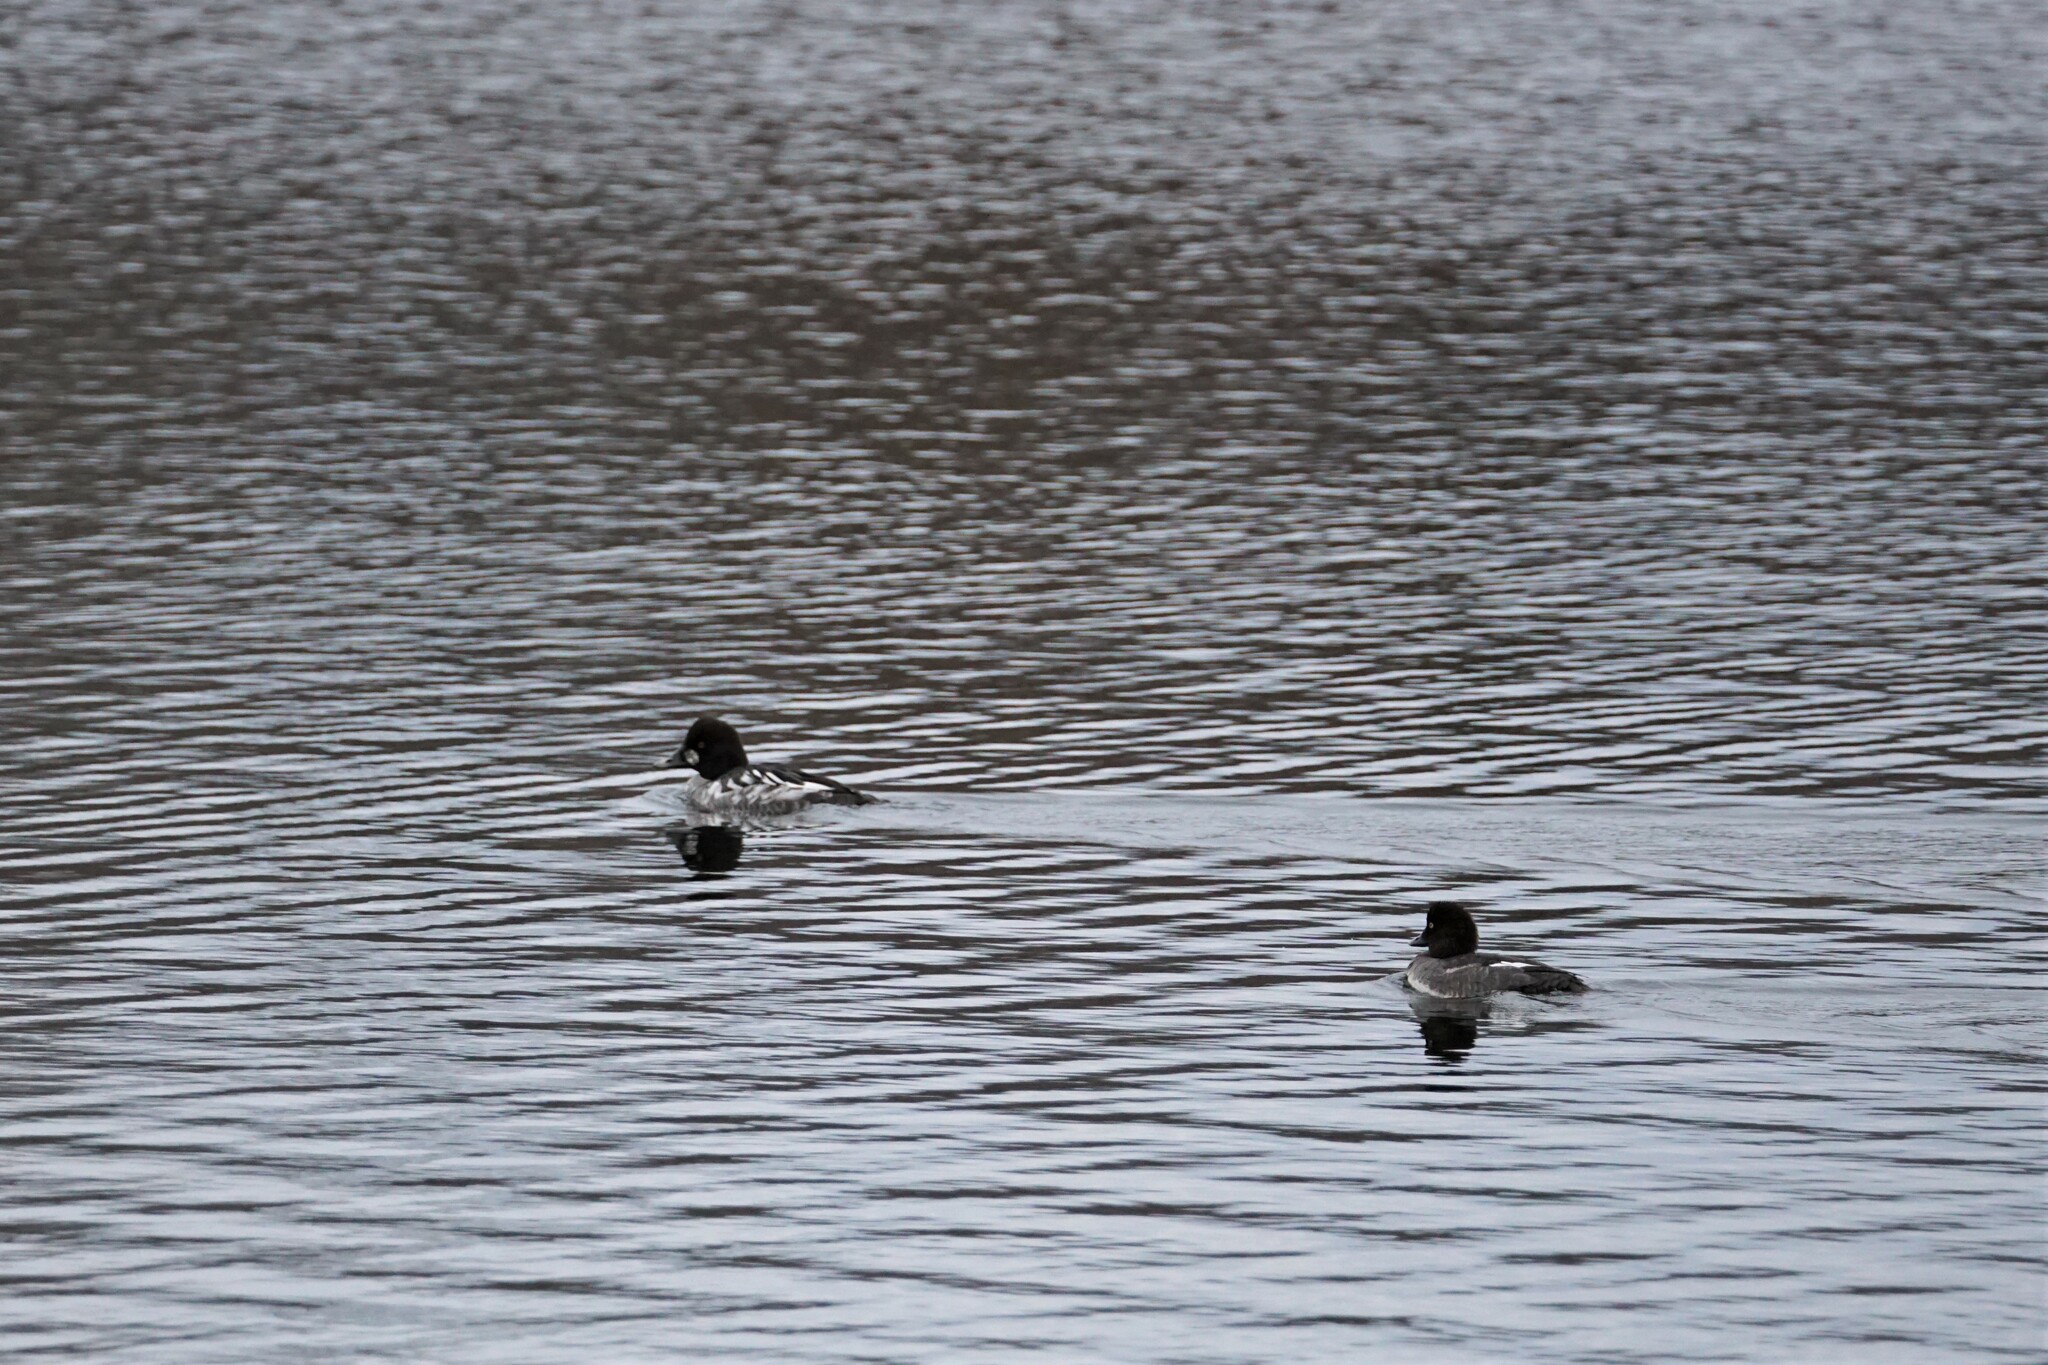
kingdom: Animalia
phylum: Chordata
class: Aves
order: Anseriformes
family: Anatidae
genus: Bucephala
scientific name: Bucephala clangula
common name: Common goldeneye
